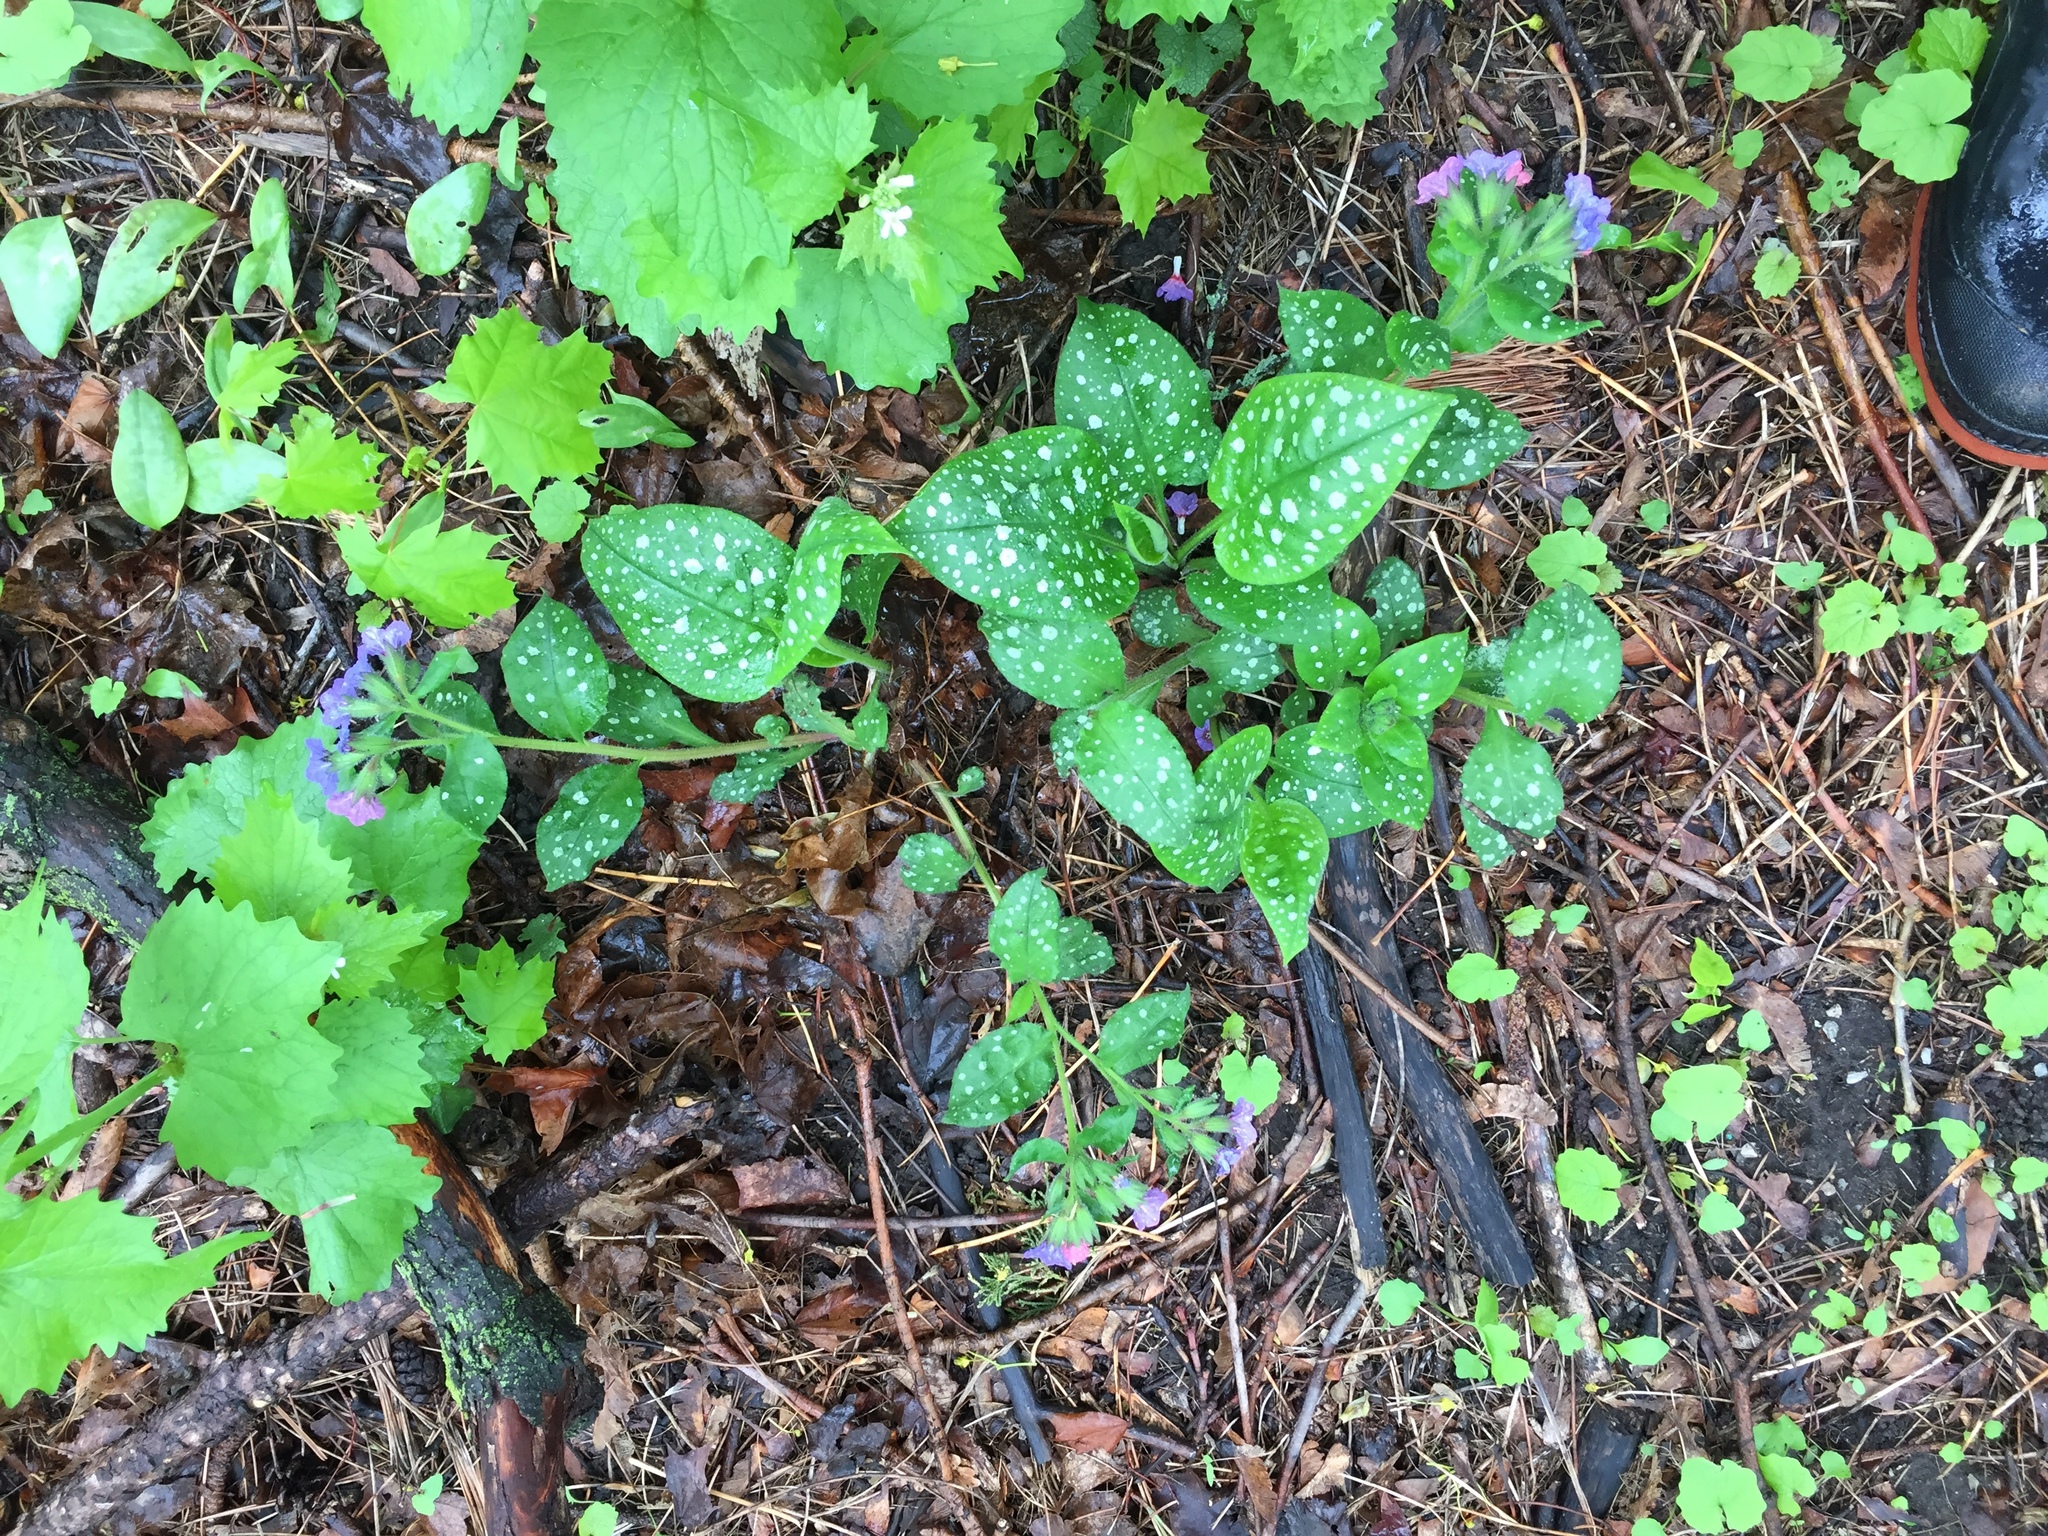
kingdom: Plantae
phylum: Tracheophyta
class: Magnoliopsida
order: Boraginales
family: Boraginaceae
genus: Pulmonaria
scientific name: Pulmonaria officinalis
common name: Lungwort
